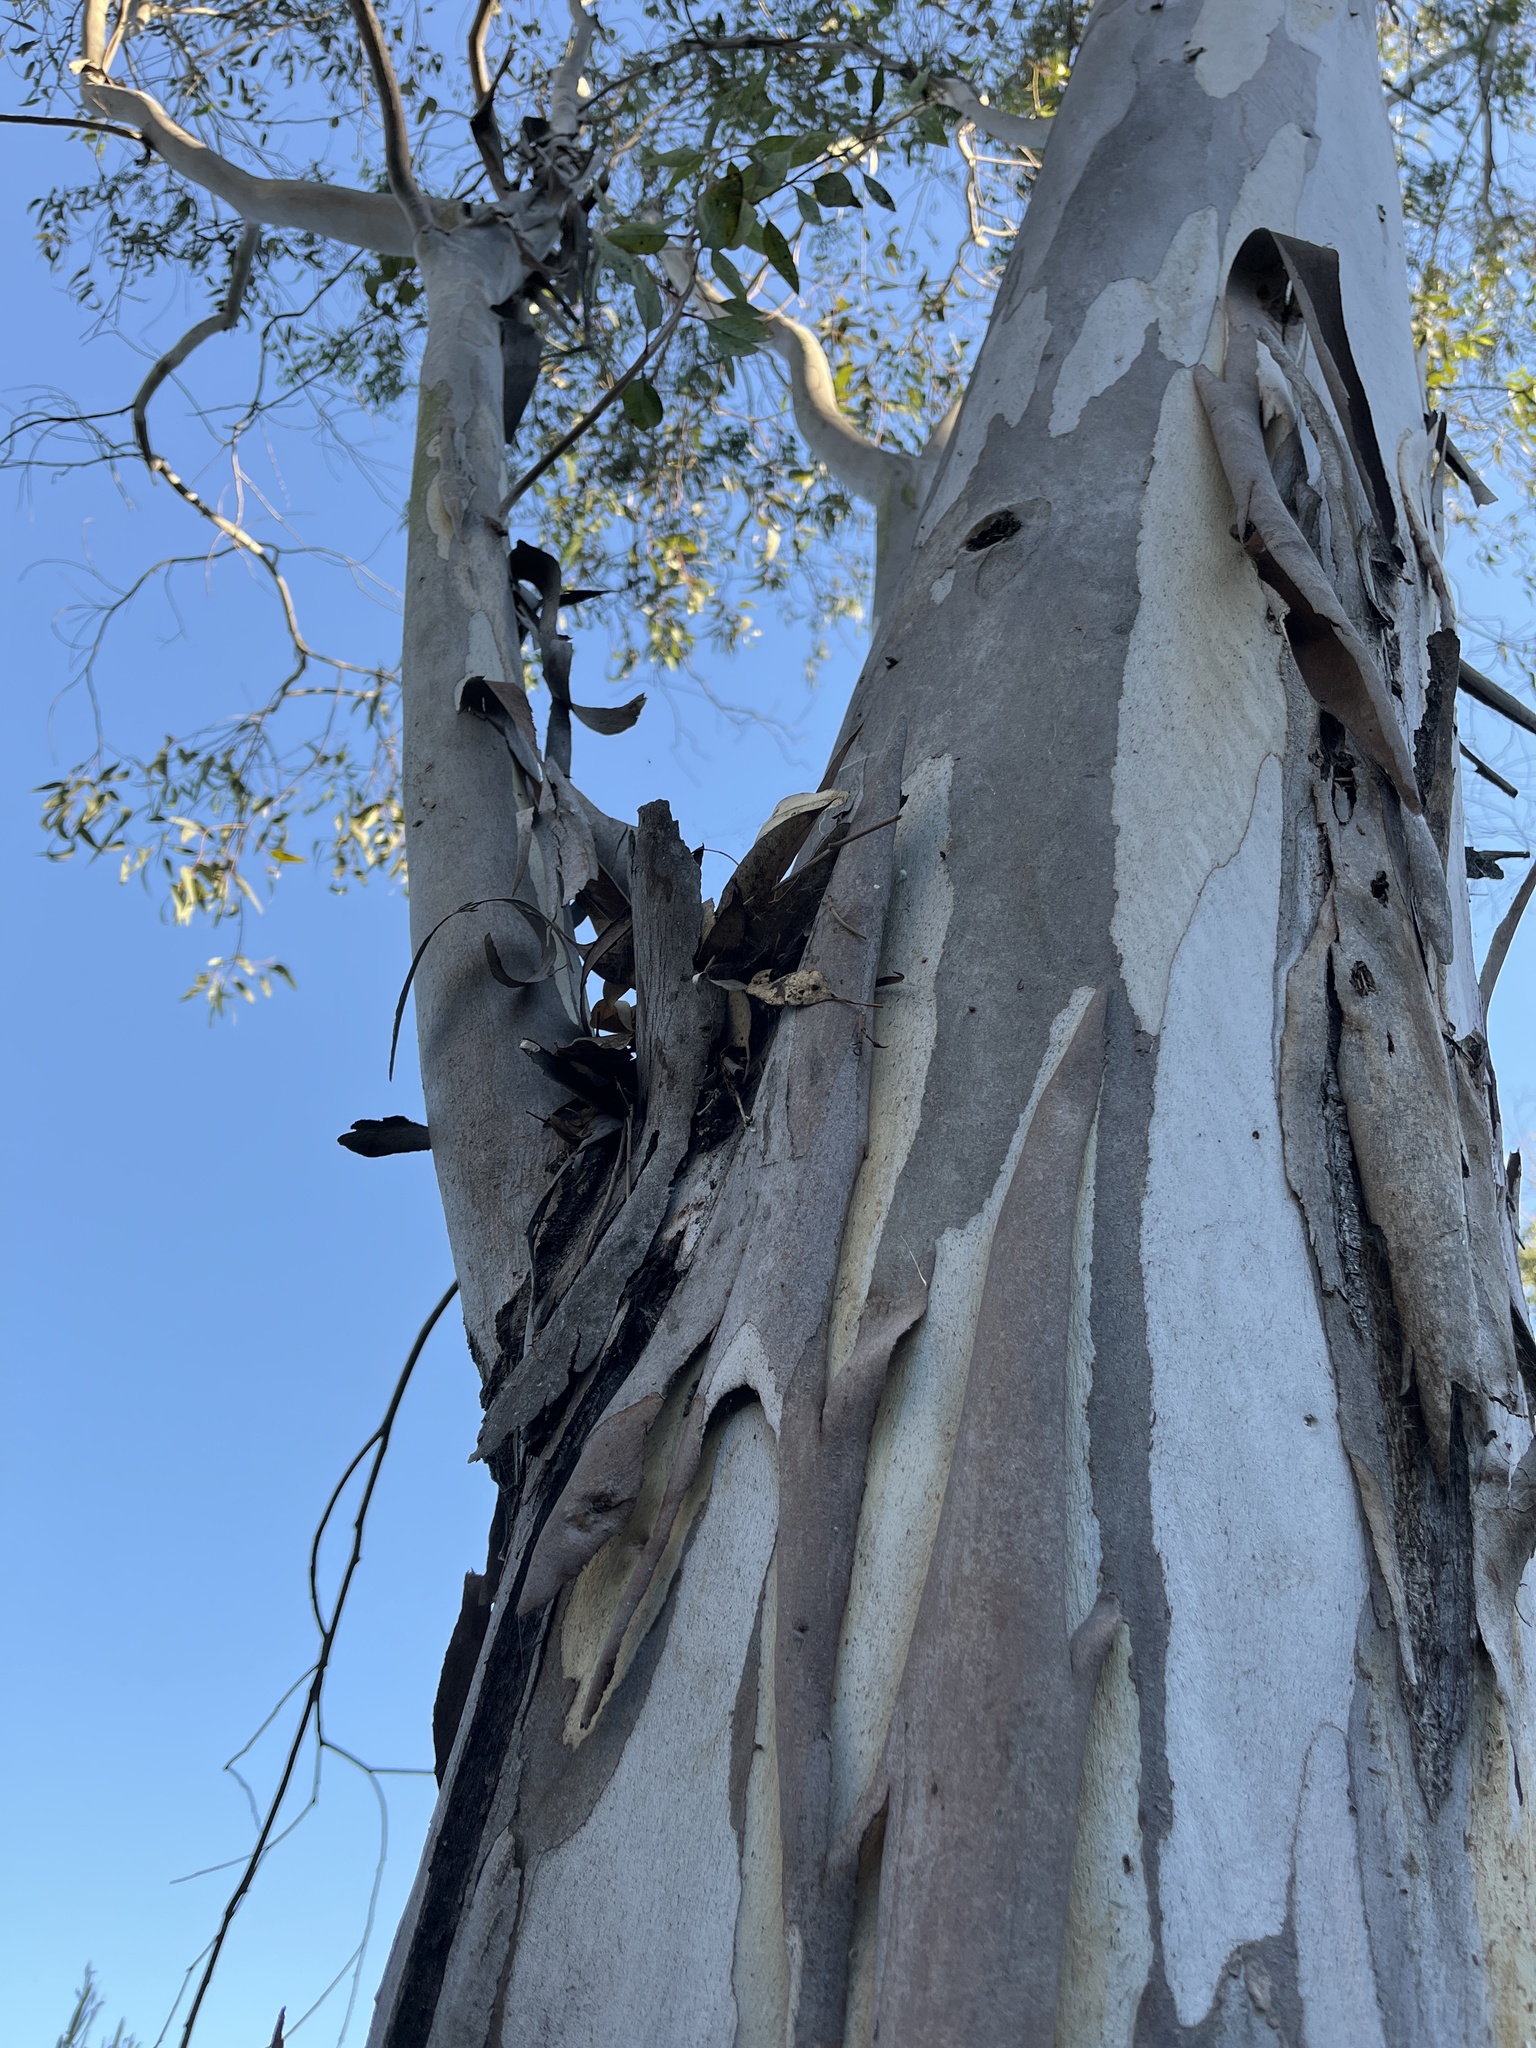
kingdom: Plantae
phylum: Tracheophyta
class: Magnoliopsida
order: Myrtales
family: Myrtaceae
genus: Eucalyptus
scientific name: Eucalyptus camaldulensis
